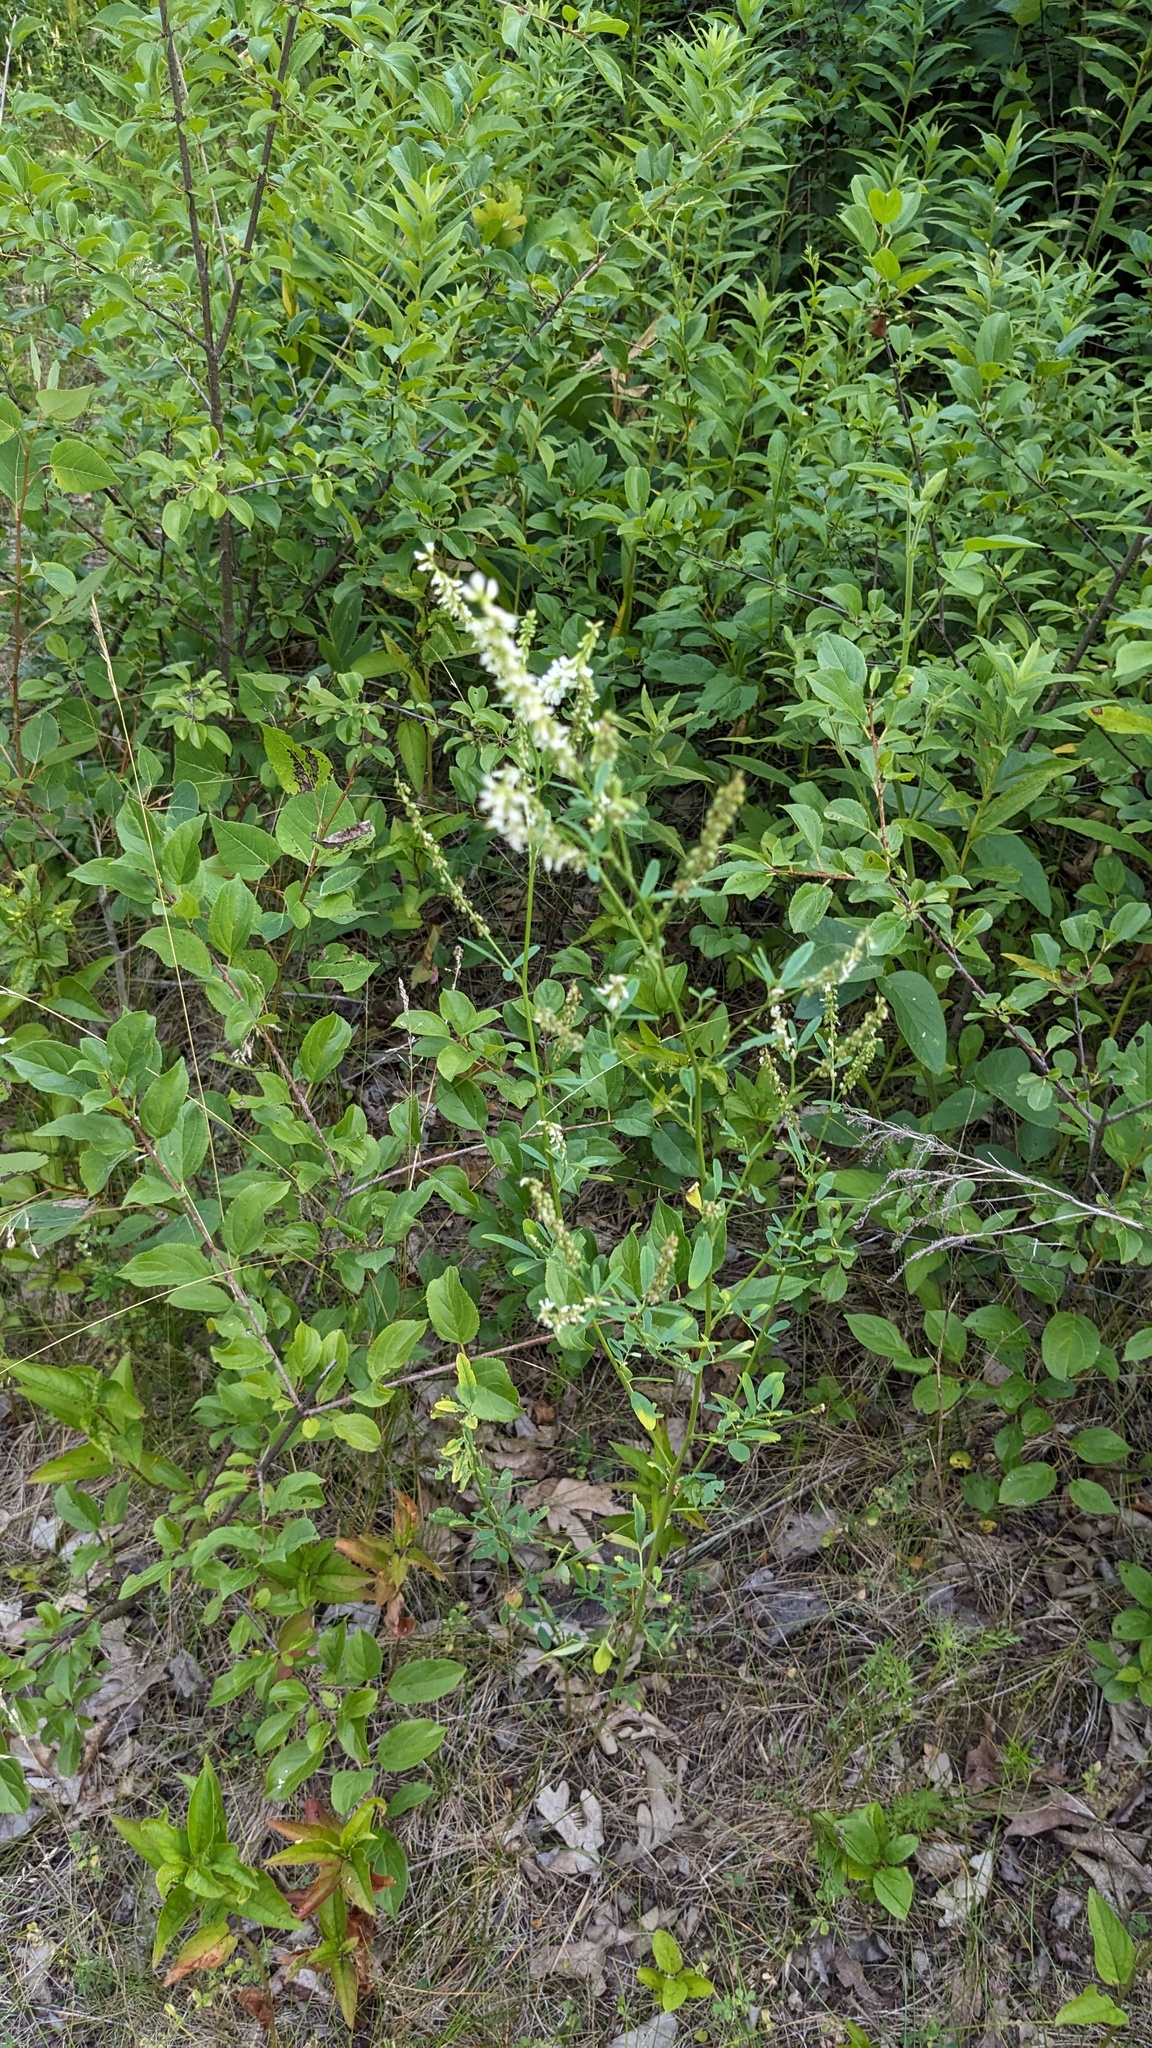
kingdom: Plantae
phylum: Tracheophyta
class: Magnoliopsida
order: Fabales
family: Fabaceae
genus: Melilotus
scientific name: Melilotus albus
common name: White melilot
